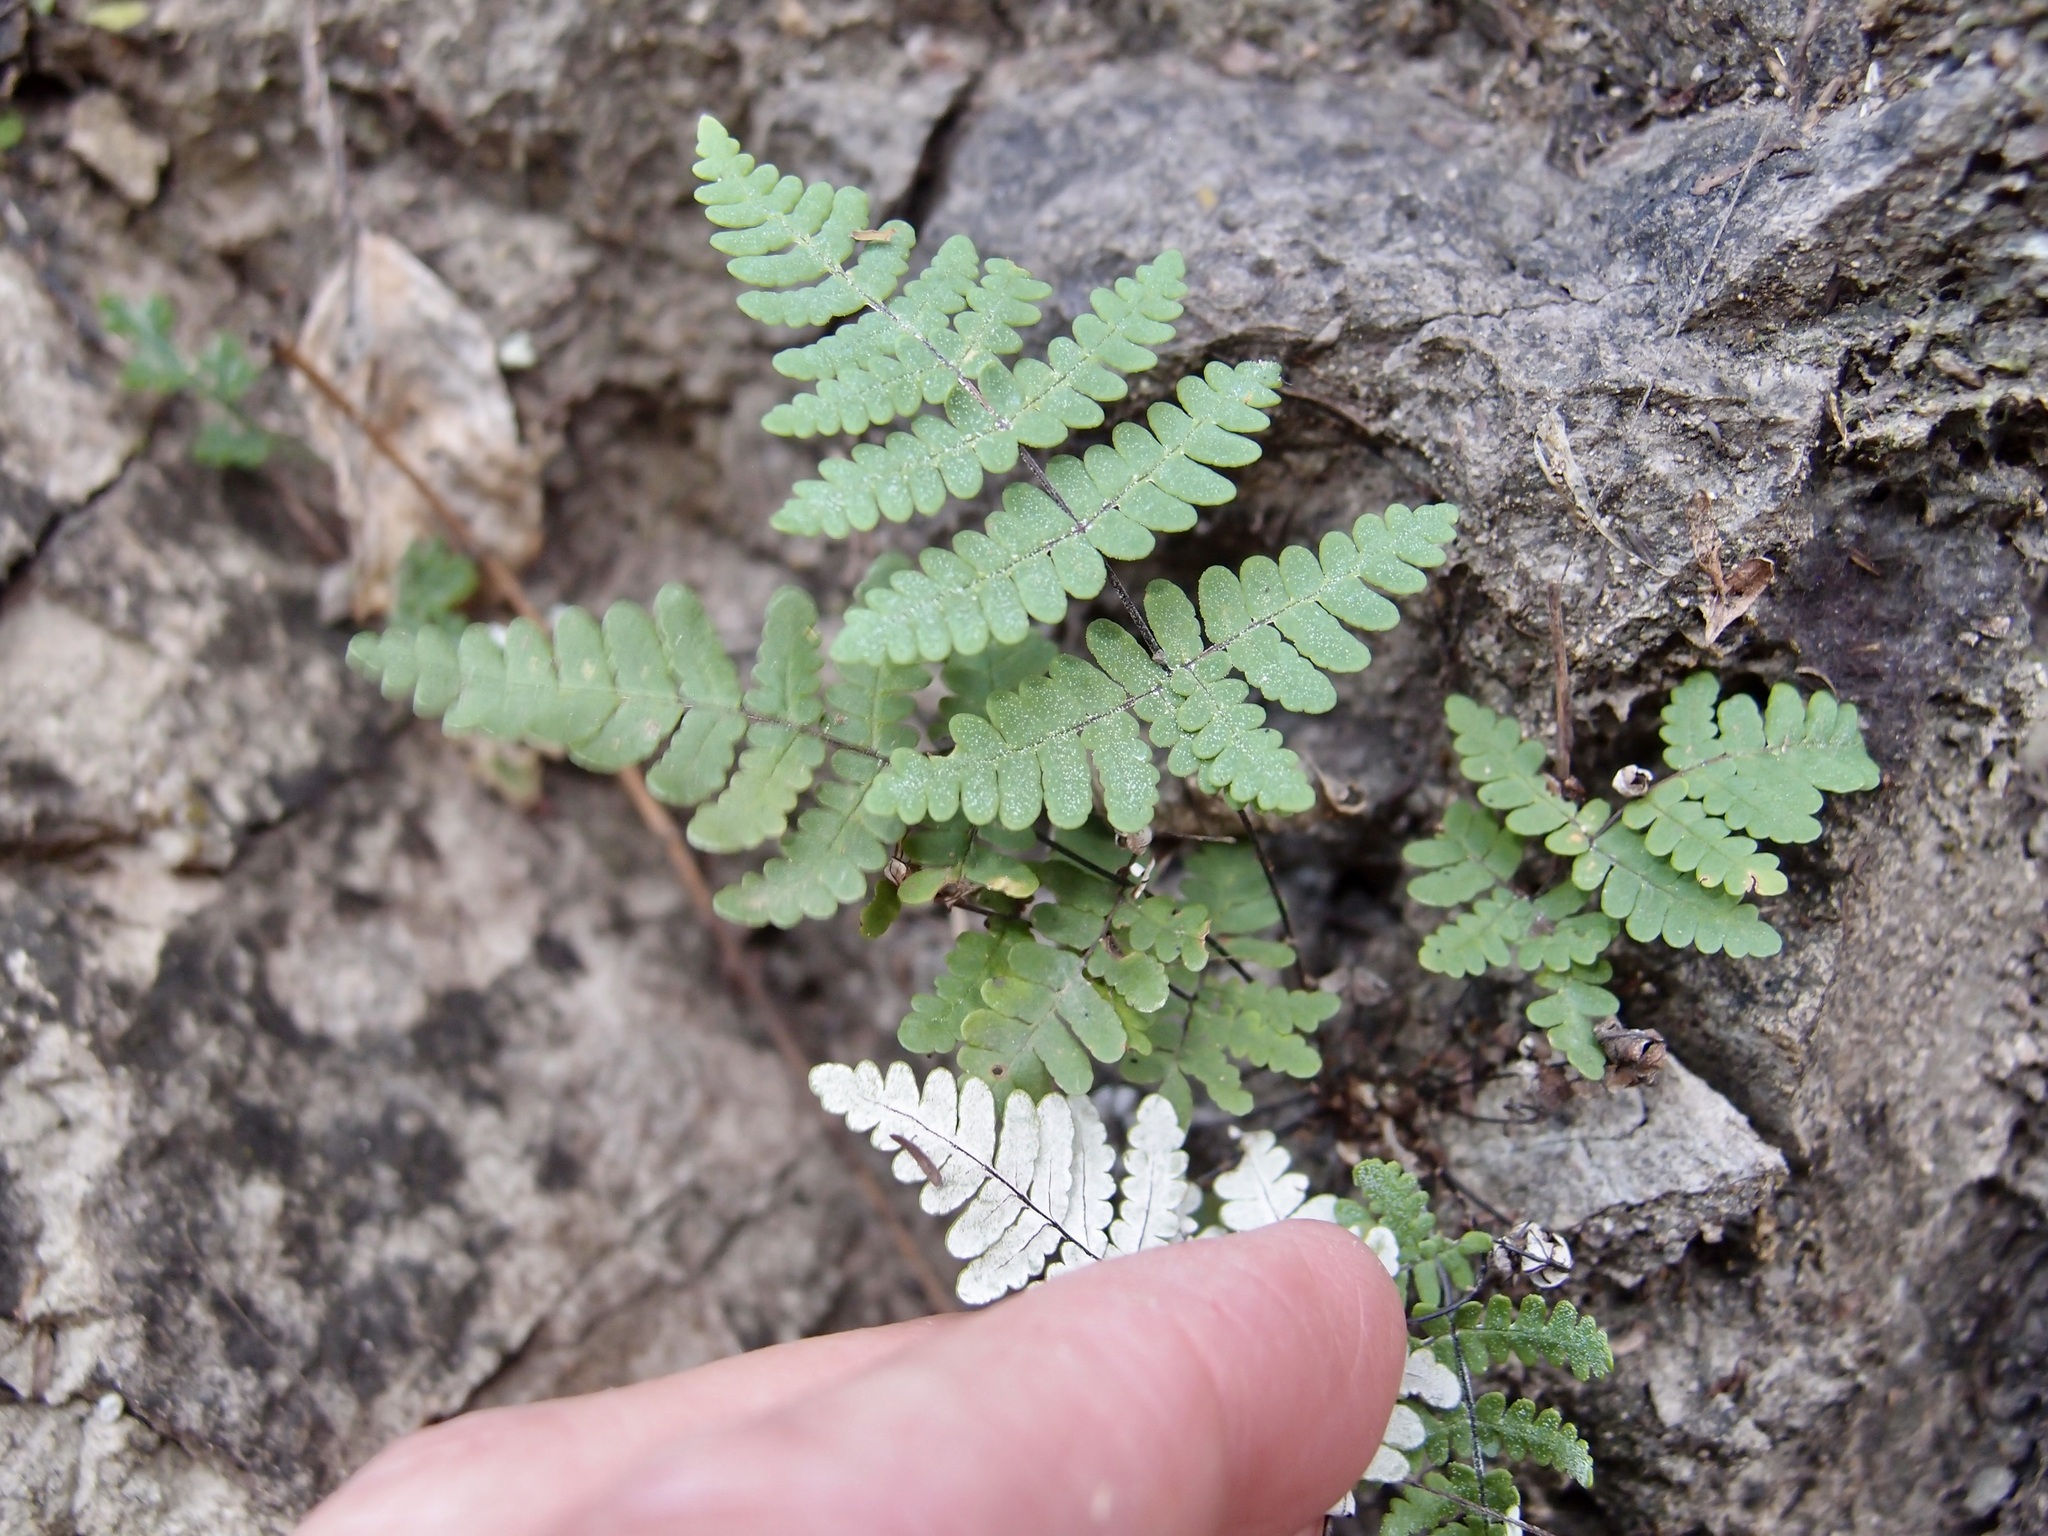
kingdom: Plantae
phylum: Tracheophyta
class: Polypodiopsida
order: Polypodiales
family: Pteridaceae
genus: Notholaena
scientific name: Notholaena candida
